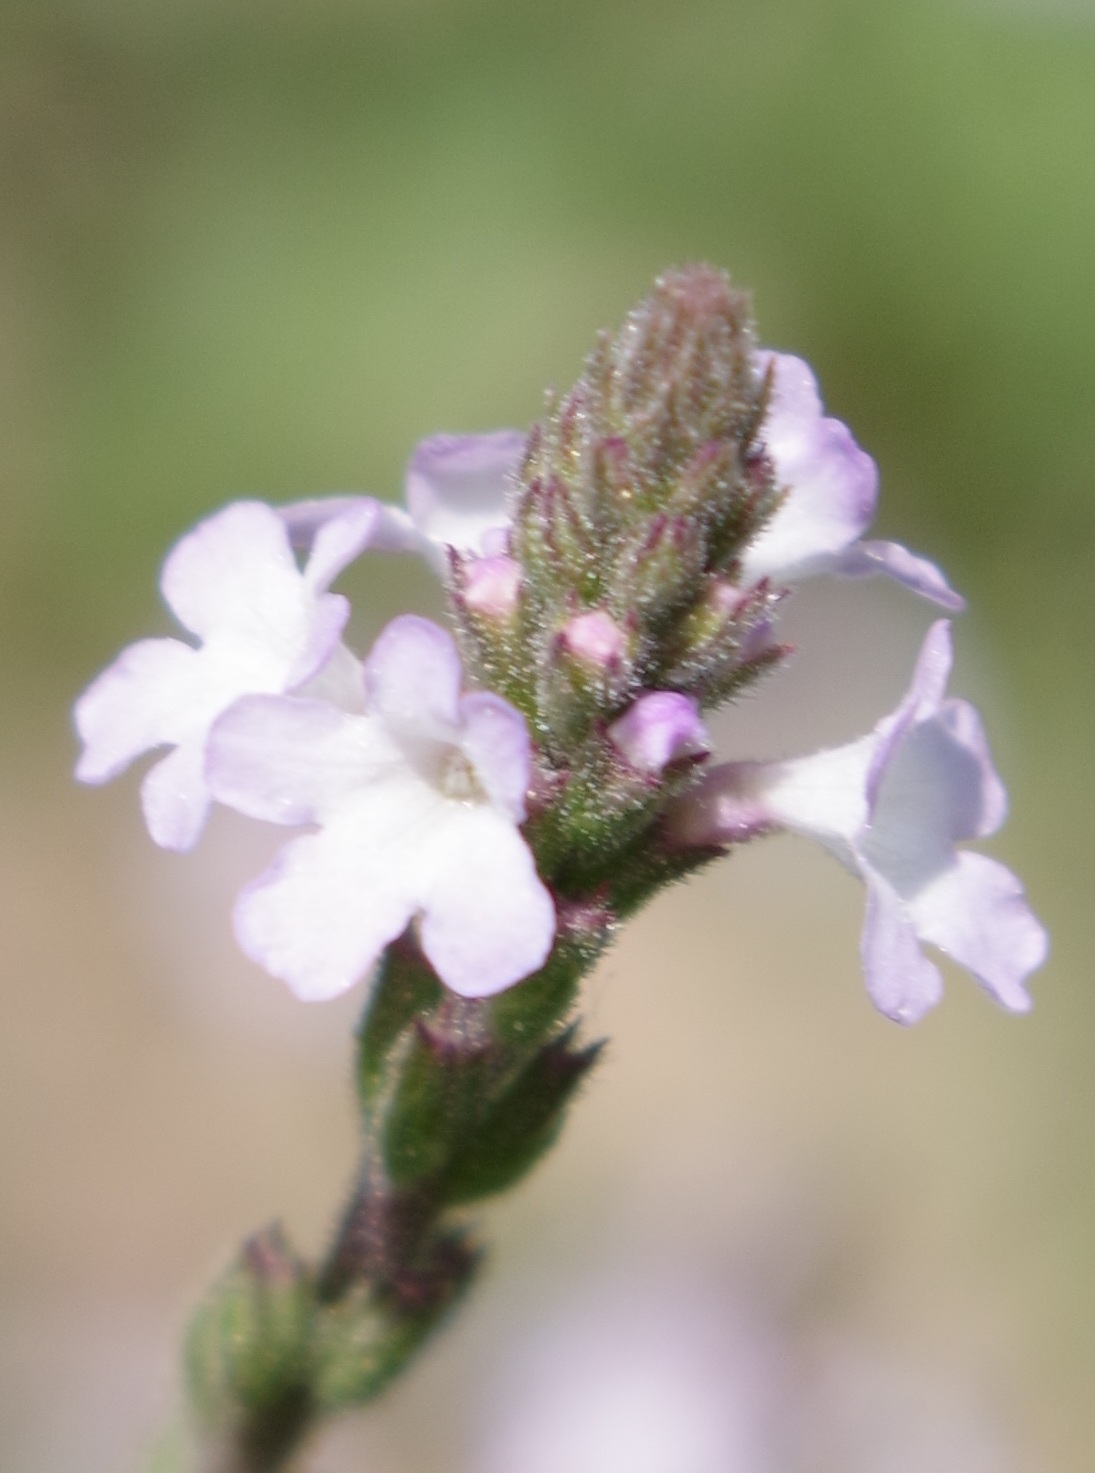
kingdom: Plantae
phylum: Tracheophyta
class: Magnoliopsida
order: Lamiales
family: Verbenaceae
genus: Verbena
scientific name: Verbena officinalis
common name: Vervain
